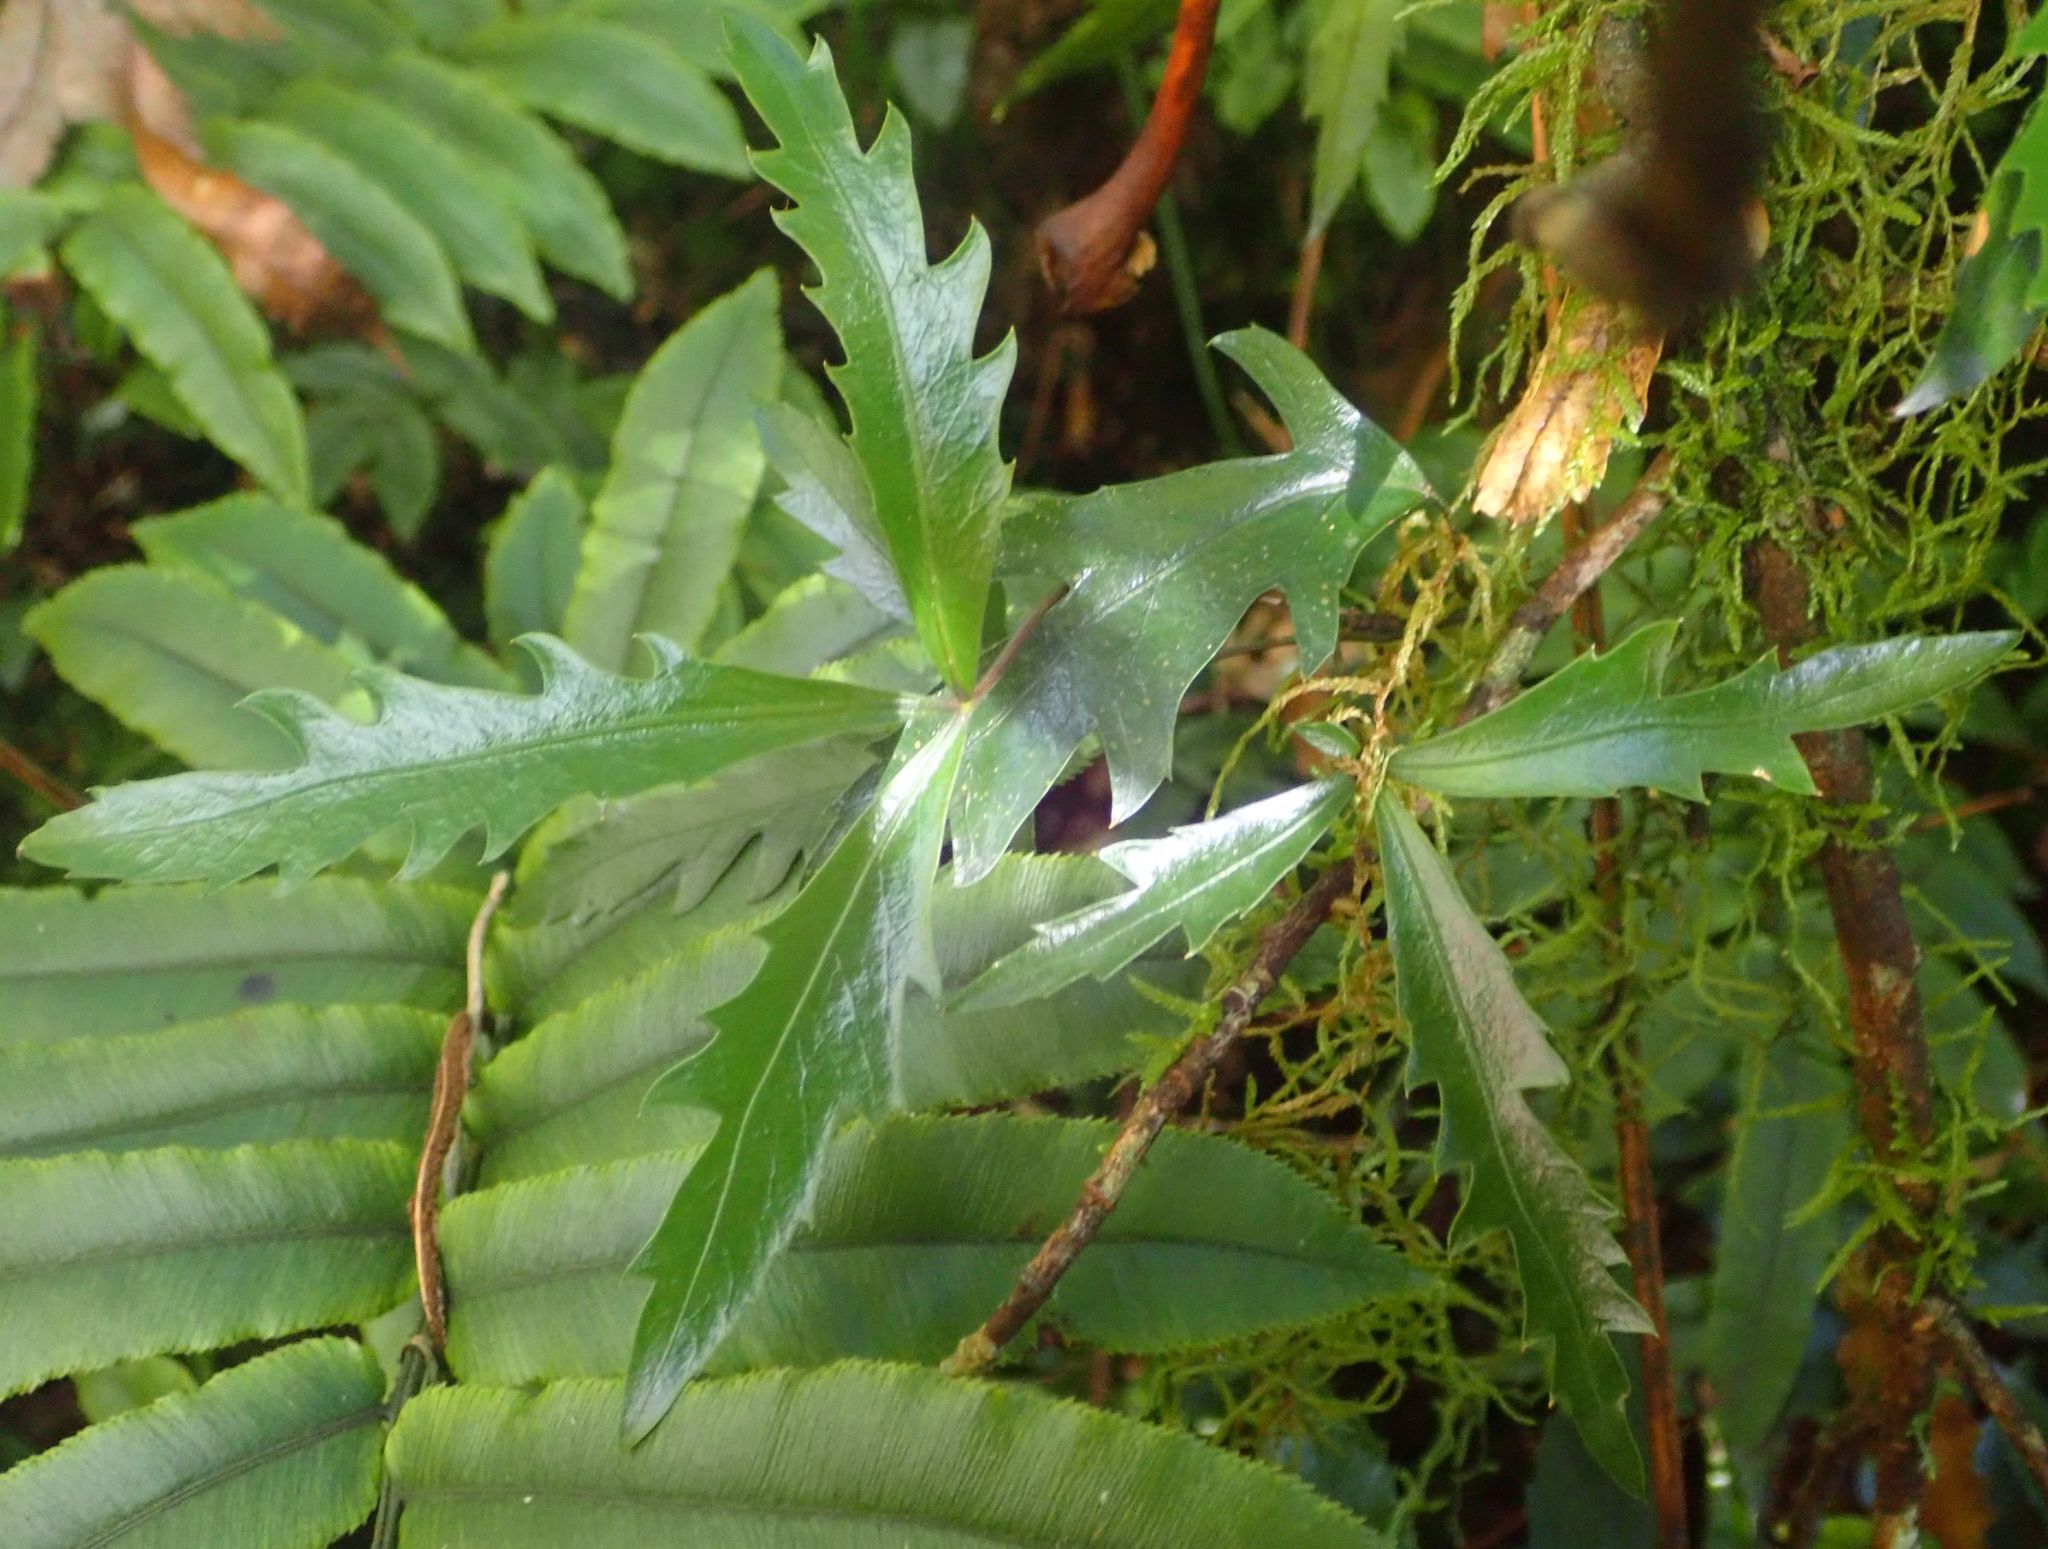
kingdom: Plantae
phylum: Tracheophyta
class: Magnoliopsida
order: Apiales
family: Araliaceae
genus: Raukaua
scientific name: Raukaua edgerleyi
